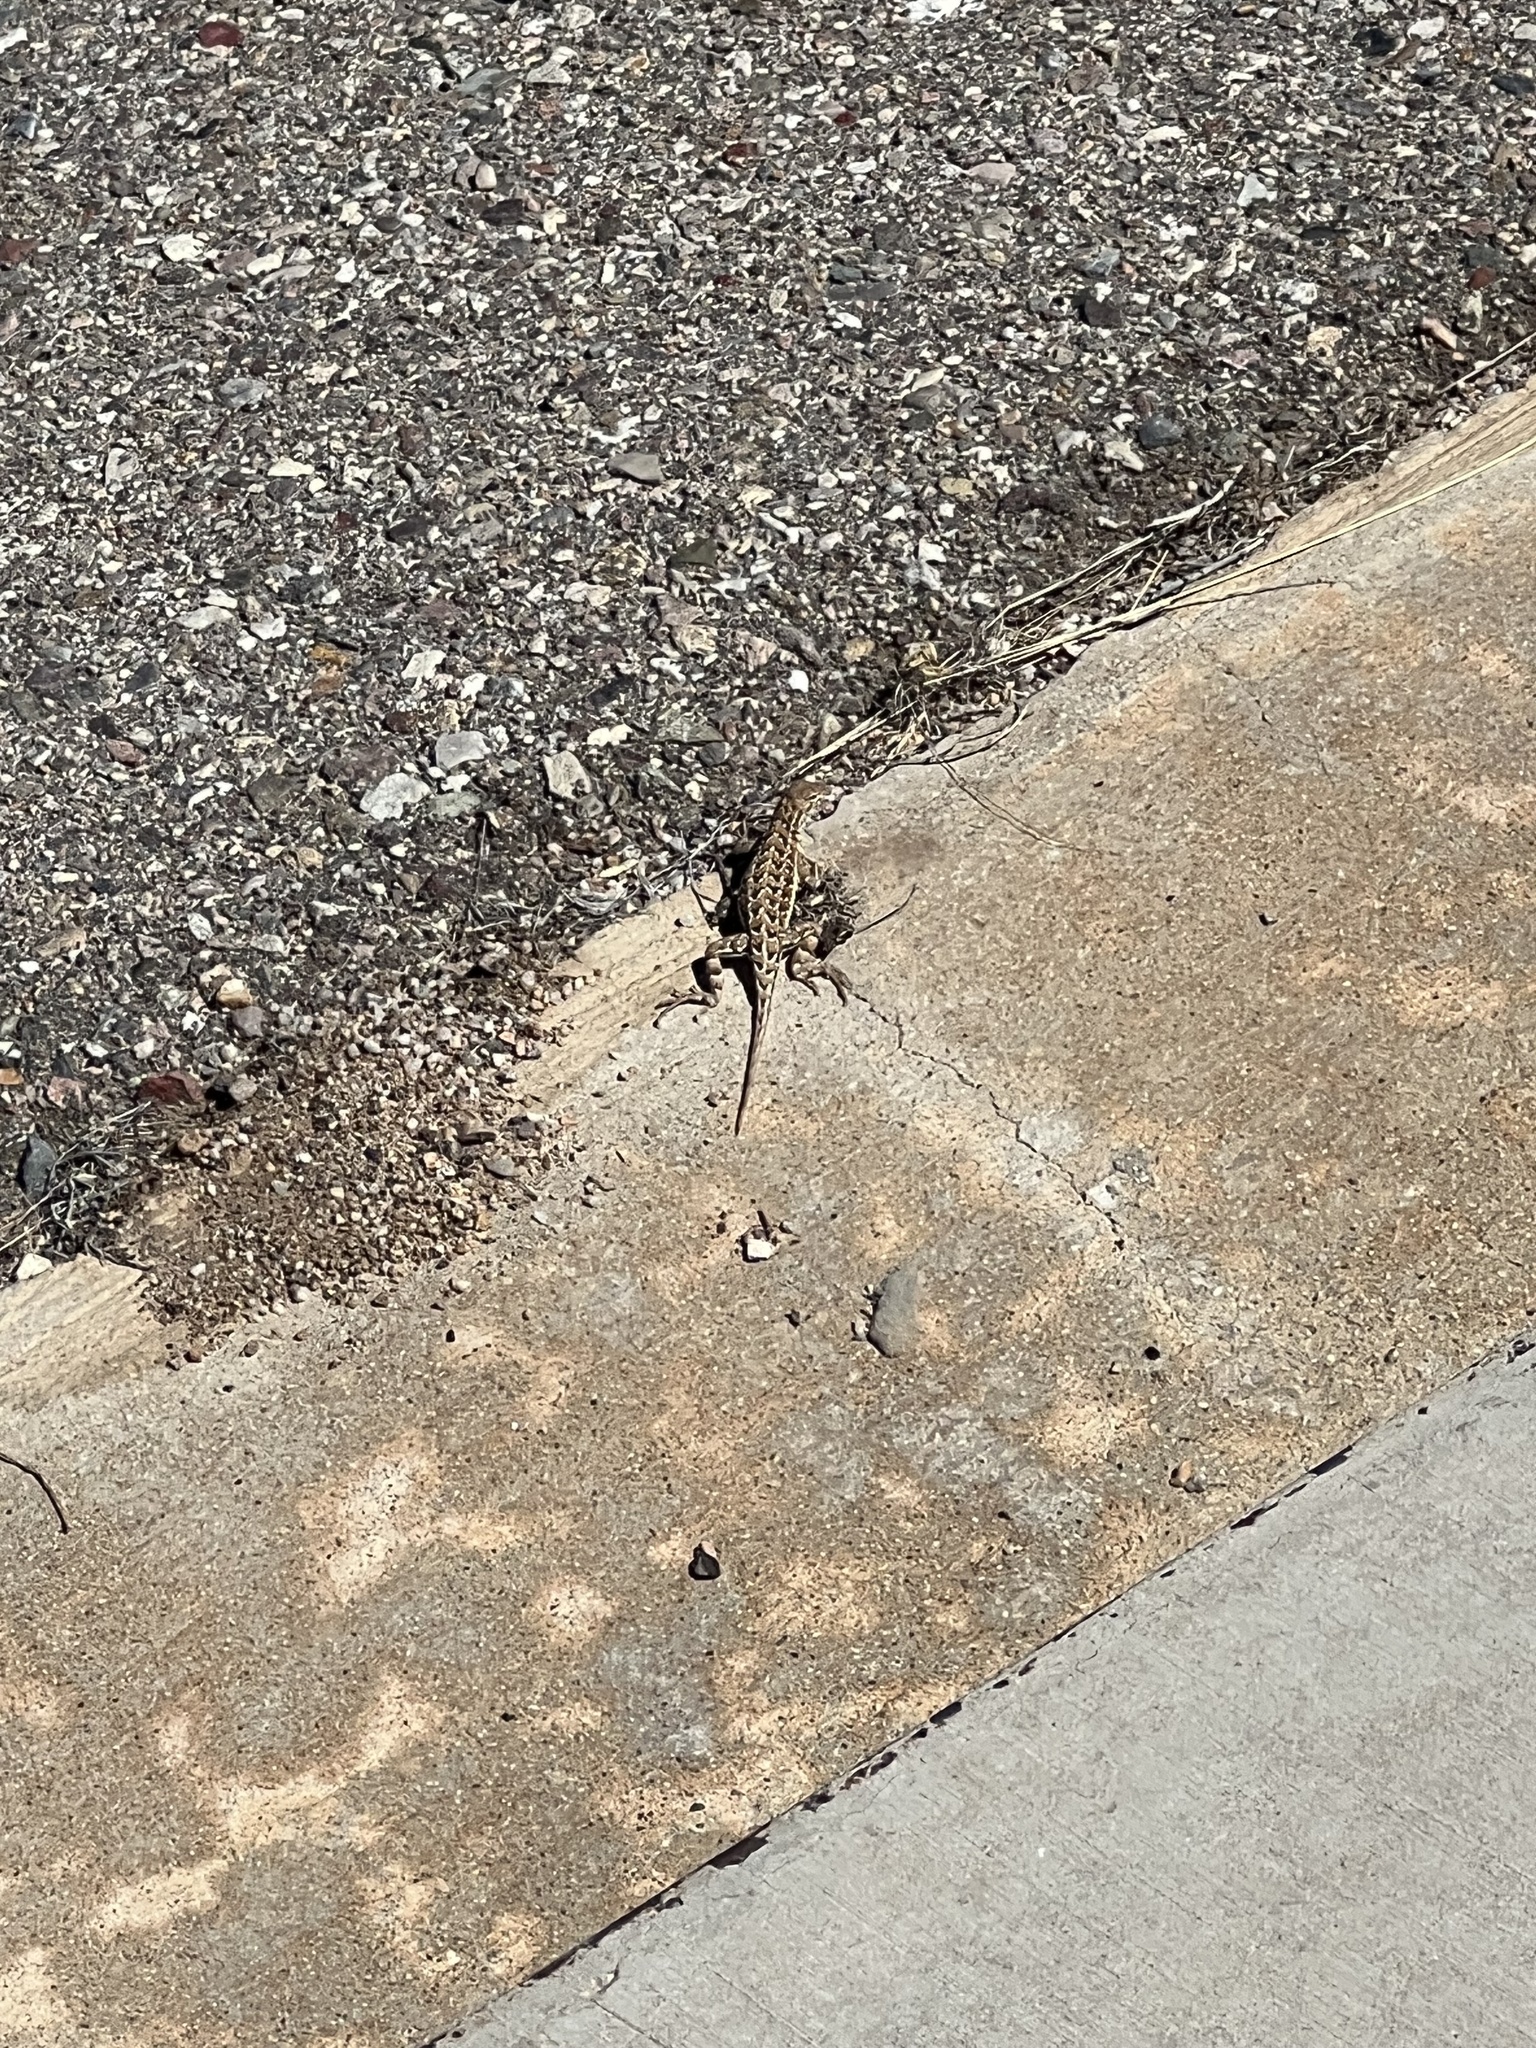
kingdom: Animalia
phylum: Chordata
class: Squamata
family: Phrynosomatidae
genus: Holbrookia
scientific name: Holbrookia elegans
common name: Elegant earless lizard
